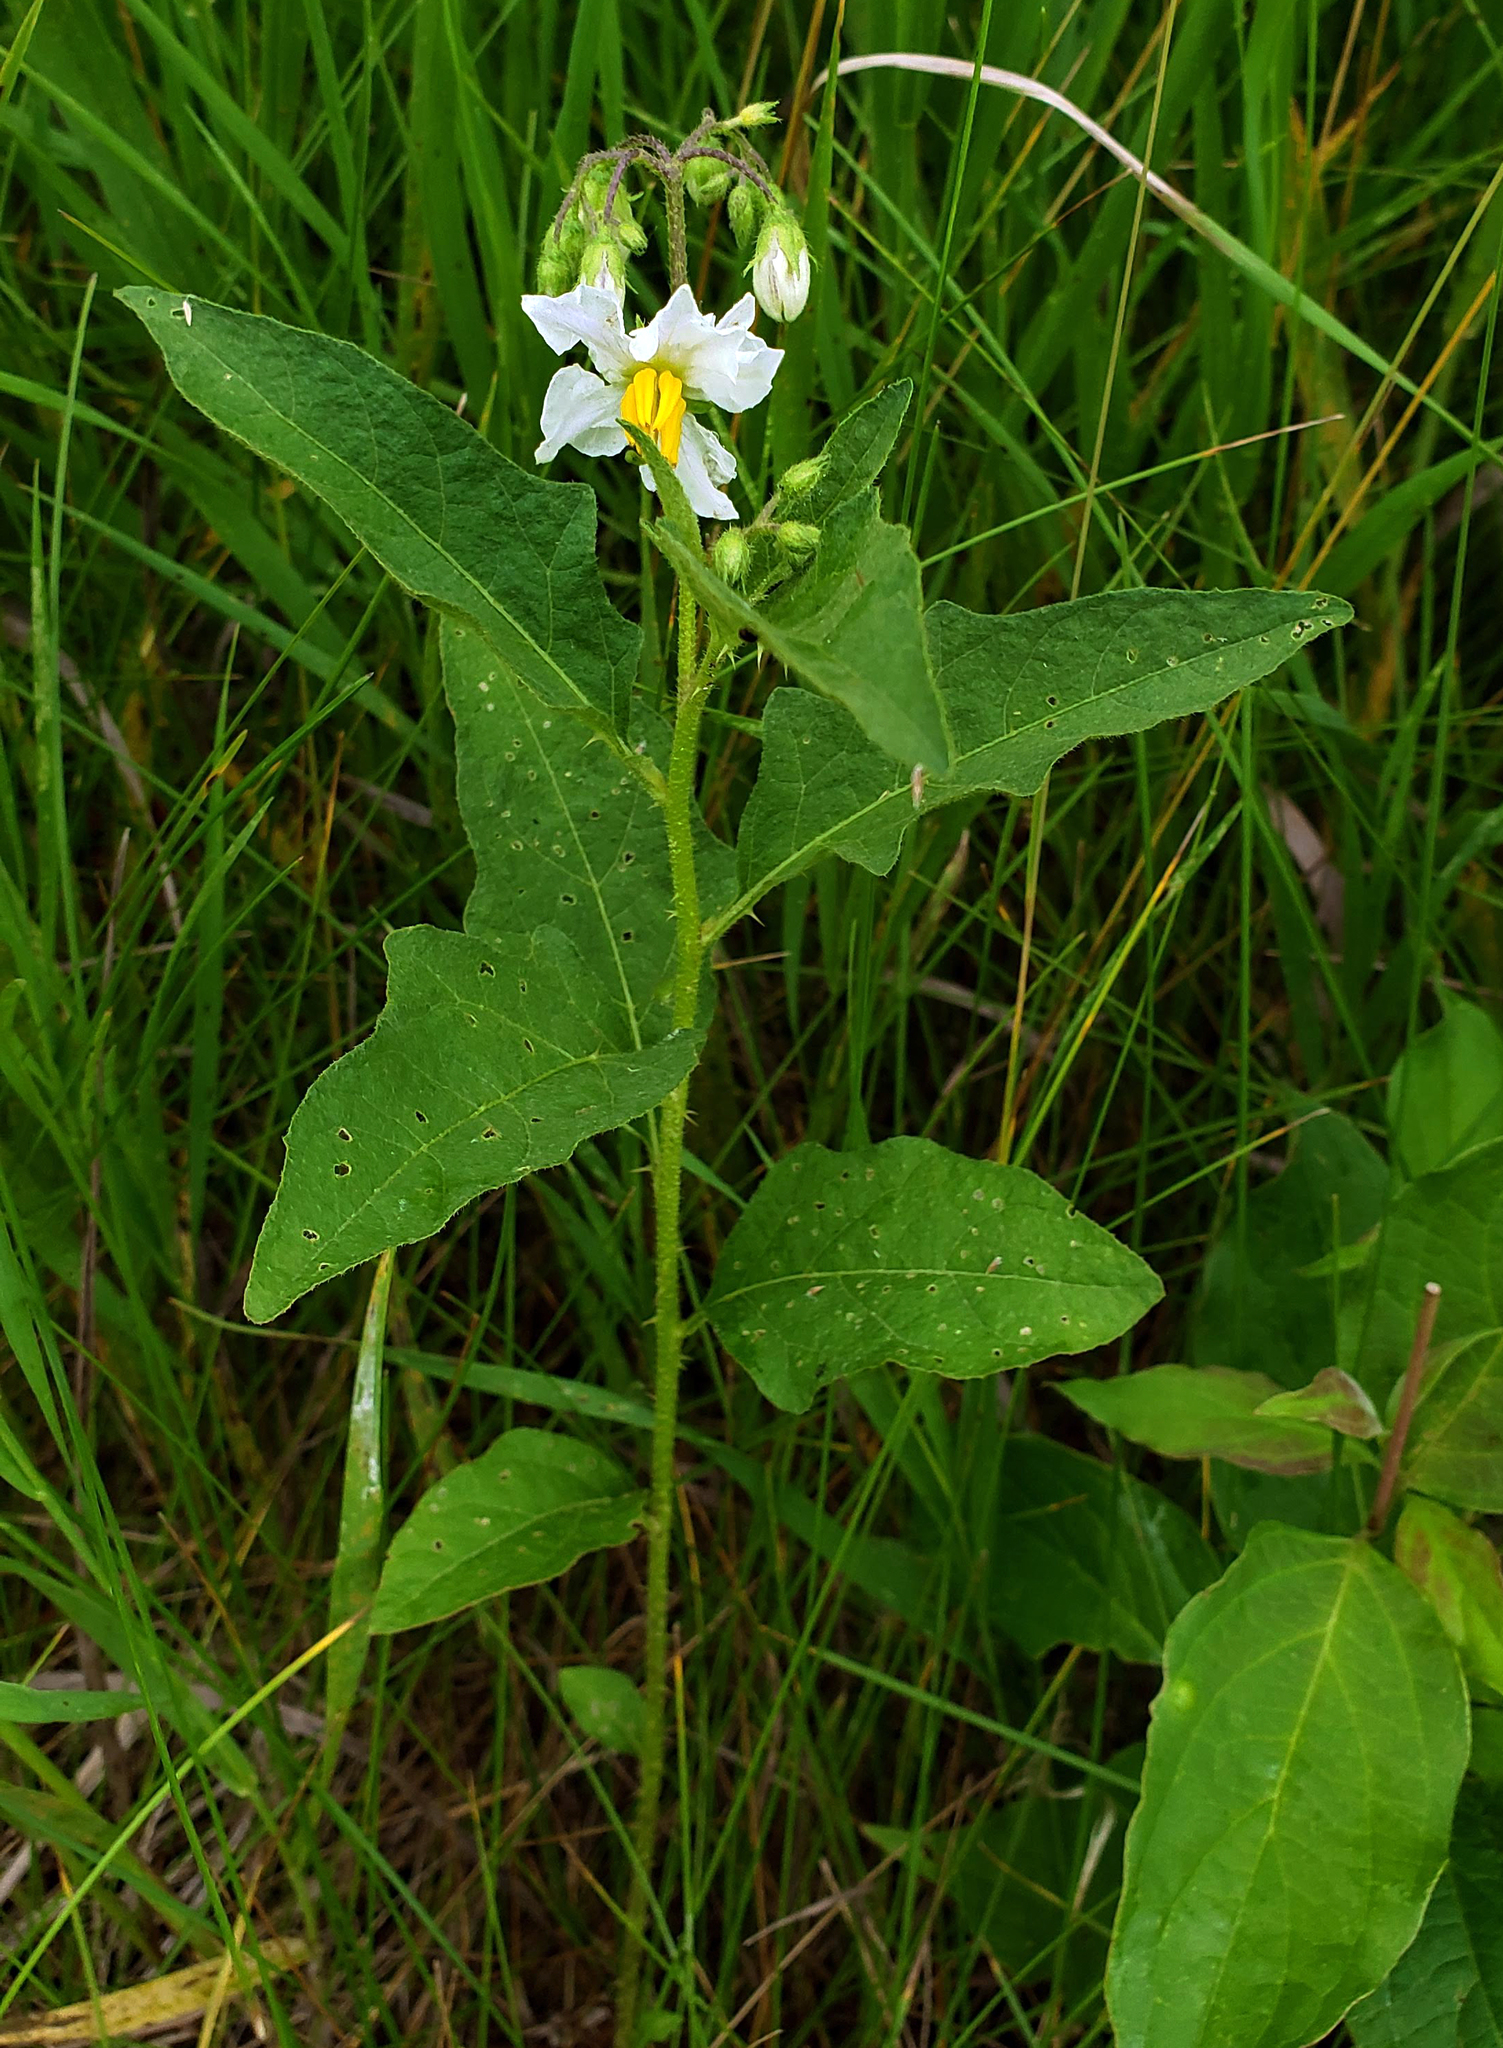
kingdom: Plantae
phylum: Tracheophyta
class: Magnoliopsida
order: Solanales
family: Solanaceae
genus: Solanum
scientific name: Solanum carolinense
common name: Horse-nettle
